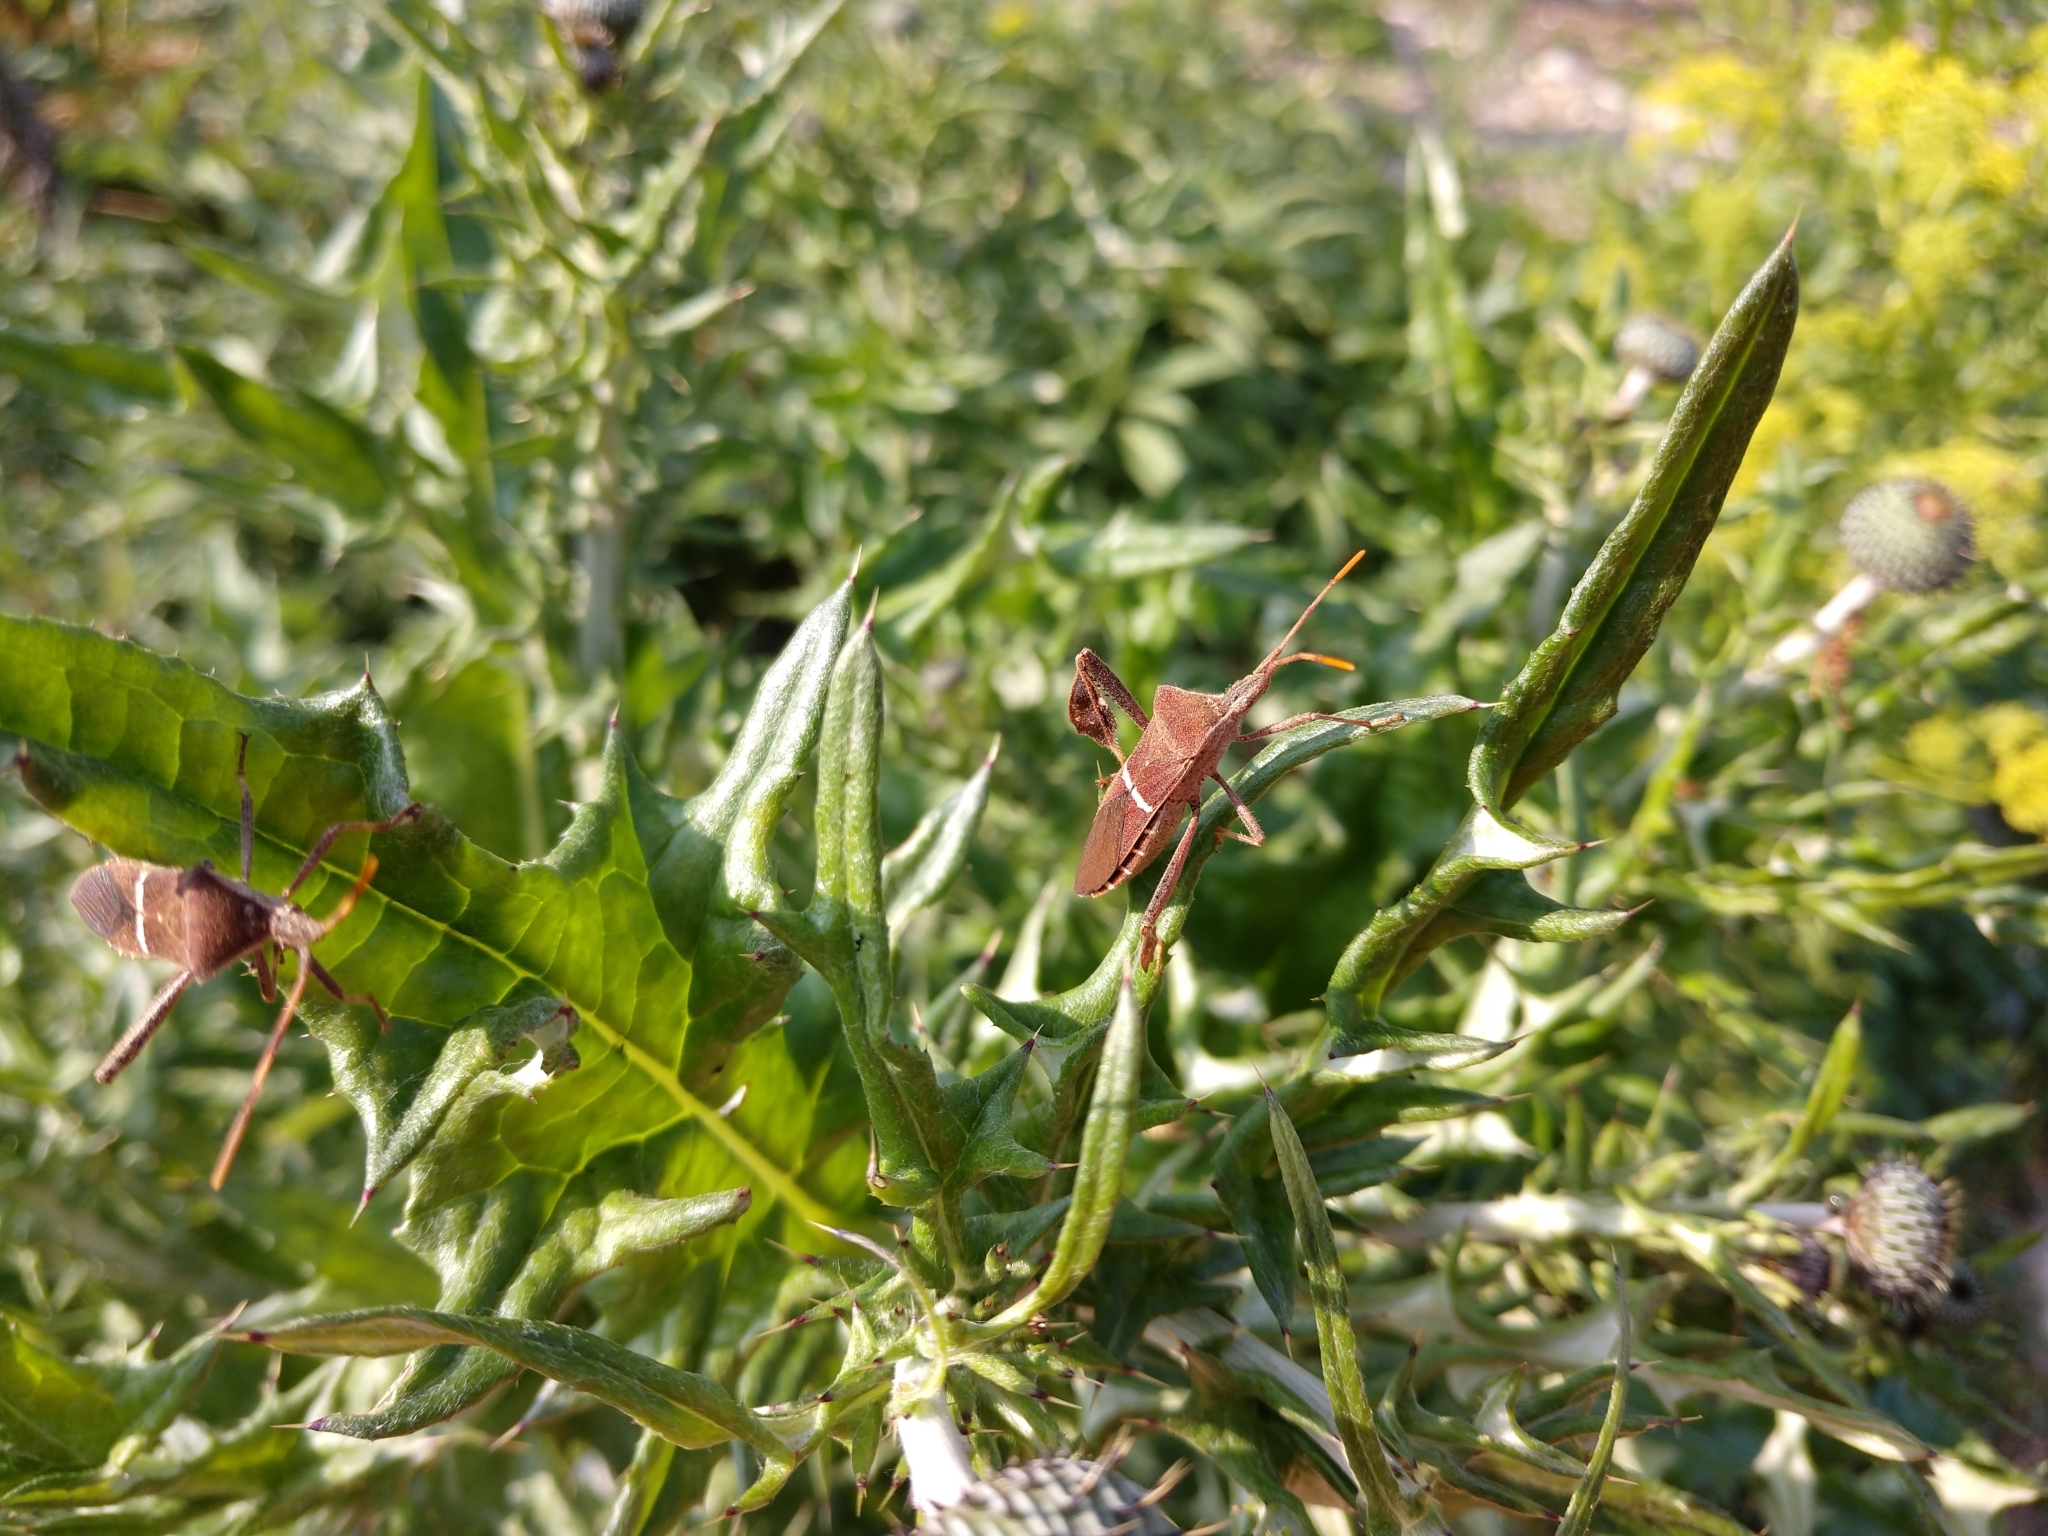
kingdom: Animalia
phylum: Arthropoda
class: Insecta
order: Hemiptera
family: Coreidae
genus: Leptoglossus
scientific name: Leptoglossus phyllopus
